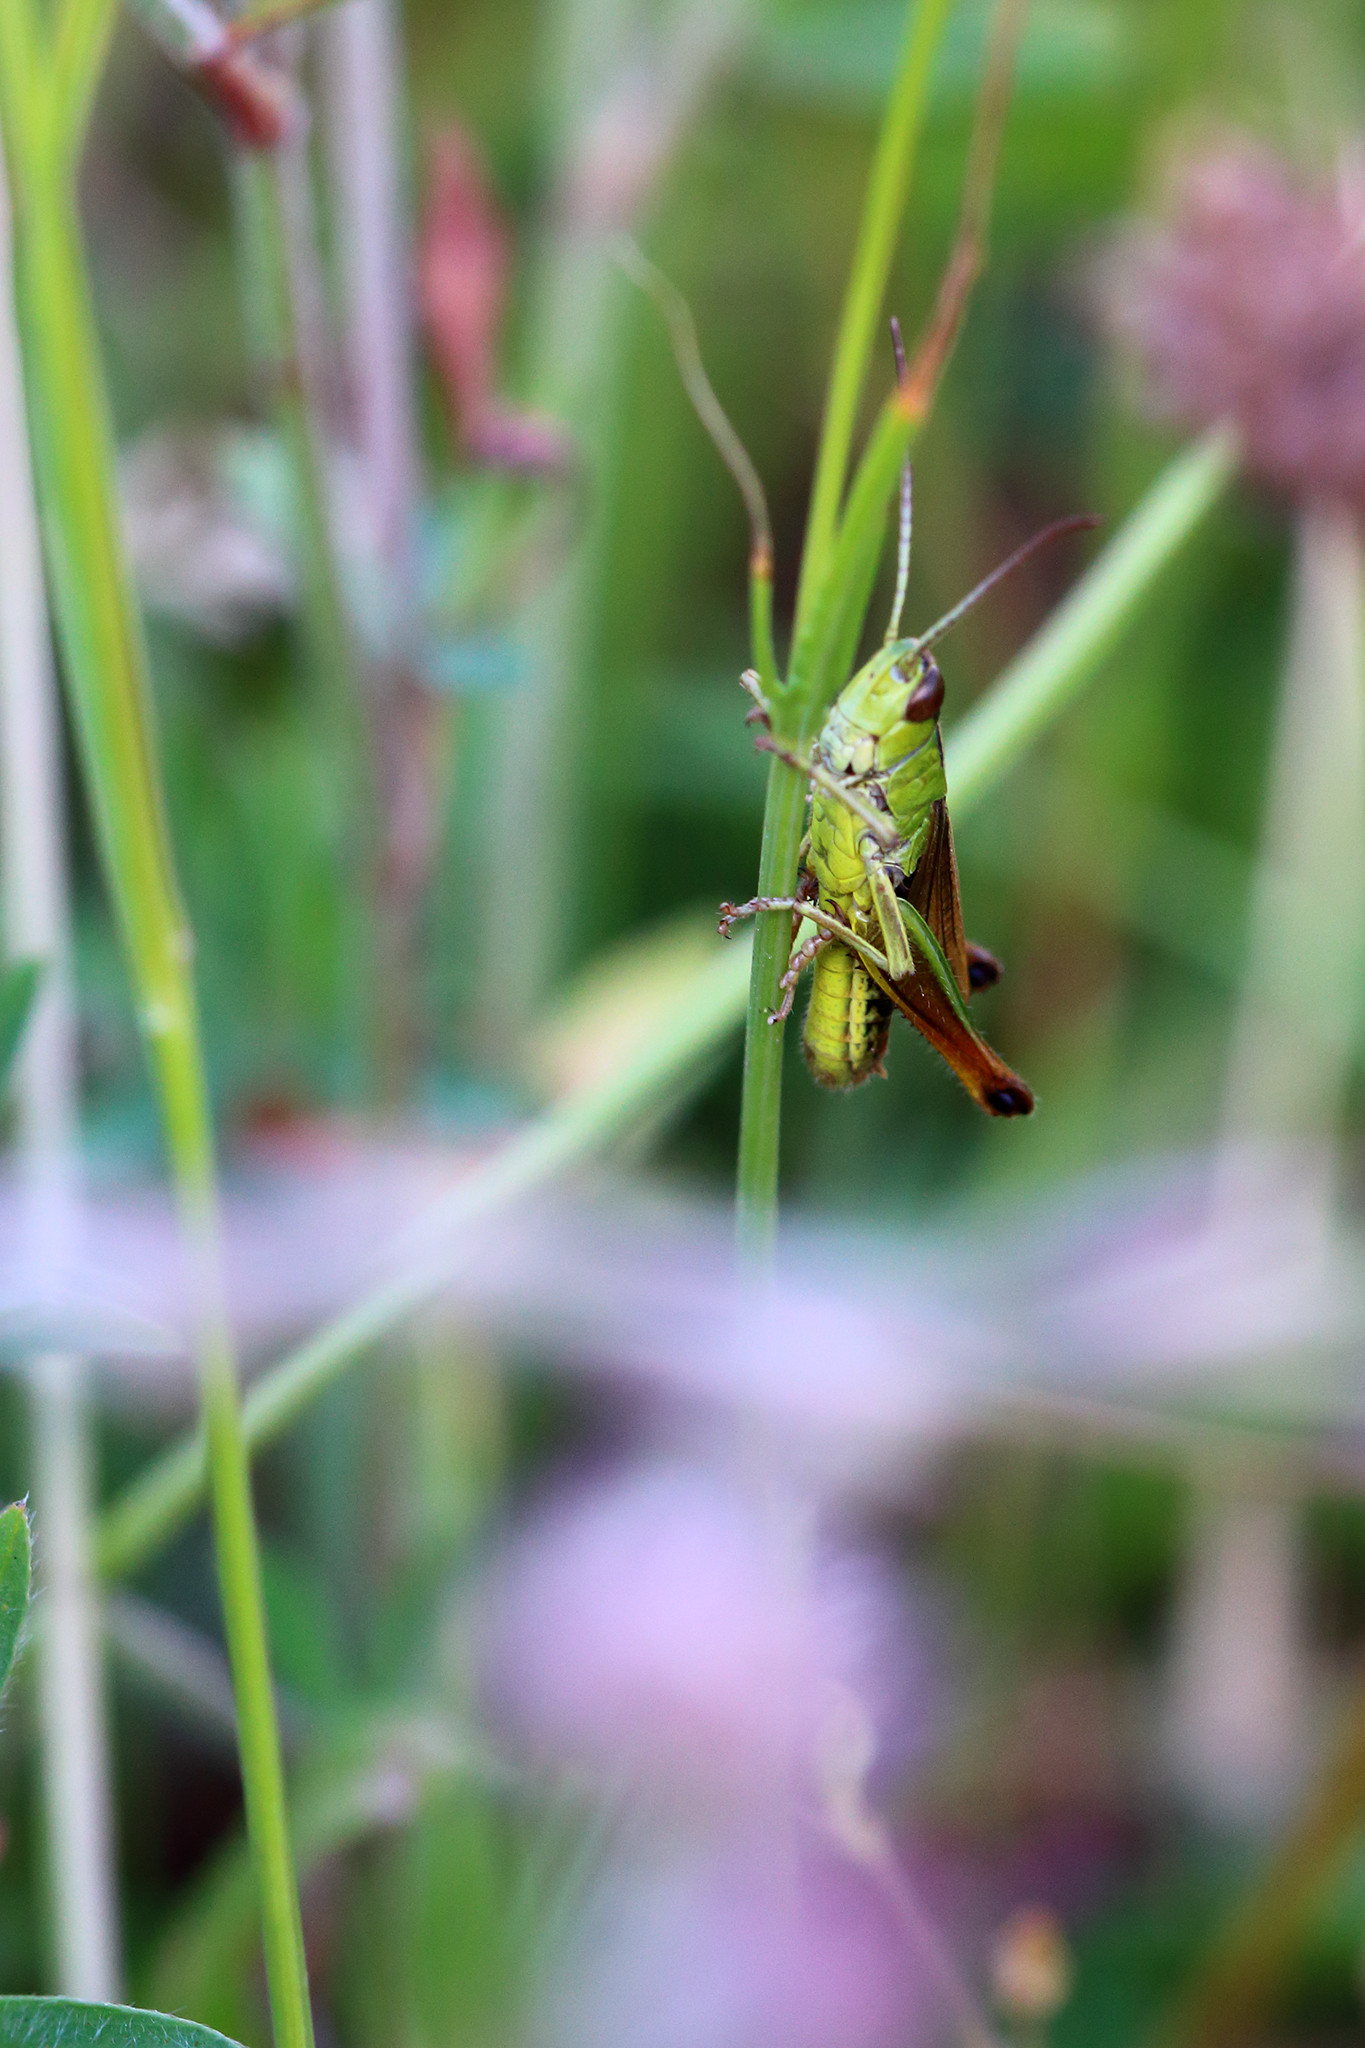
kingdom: Animalia
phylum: Arthropoda
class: Insecta
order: Orthoptera
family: Acrididae
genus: Pseudochorthippus
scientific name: Pseudochorthippus parallelus
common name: Meadow grasshopper
